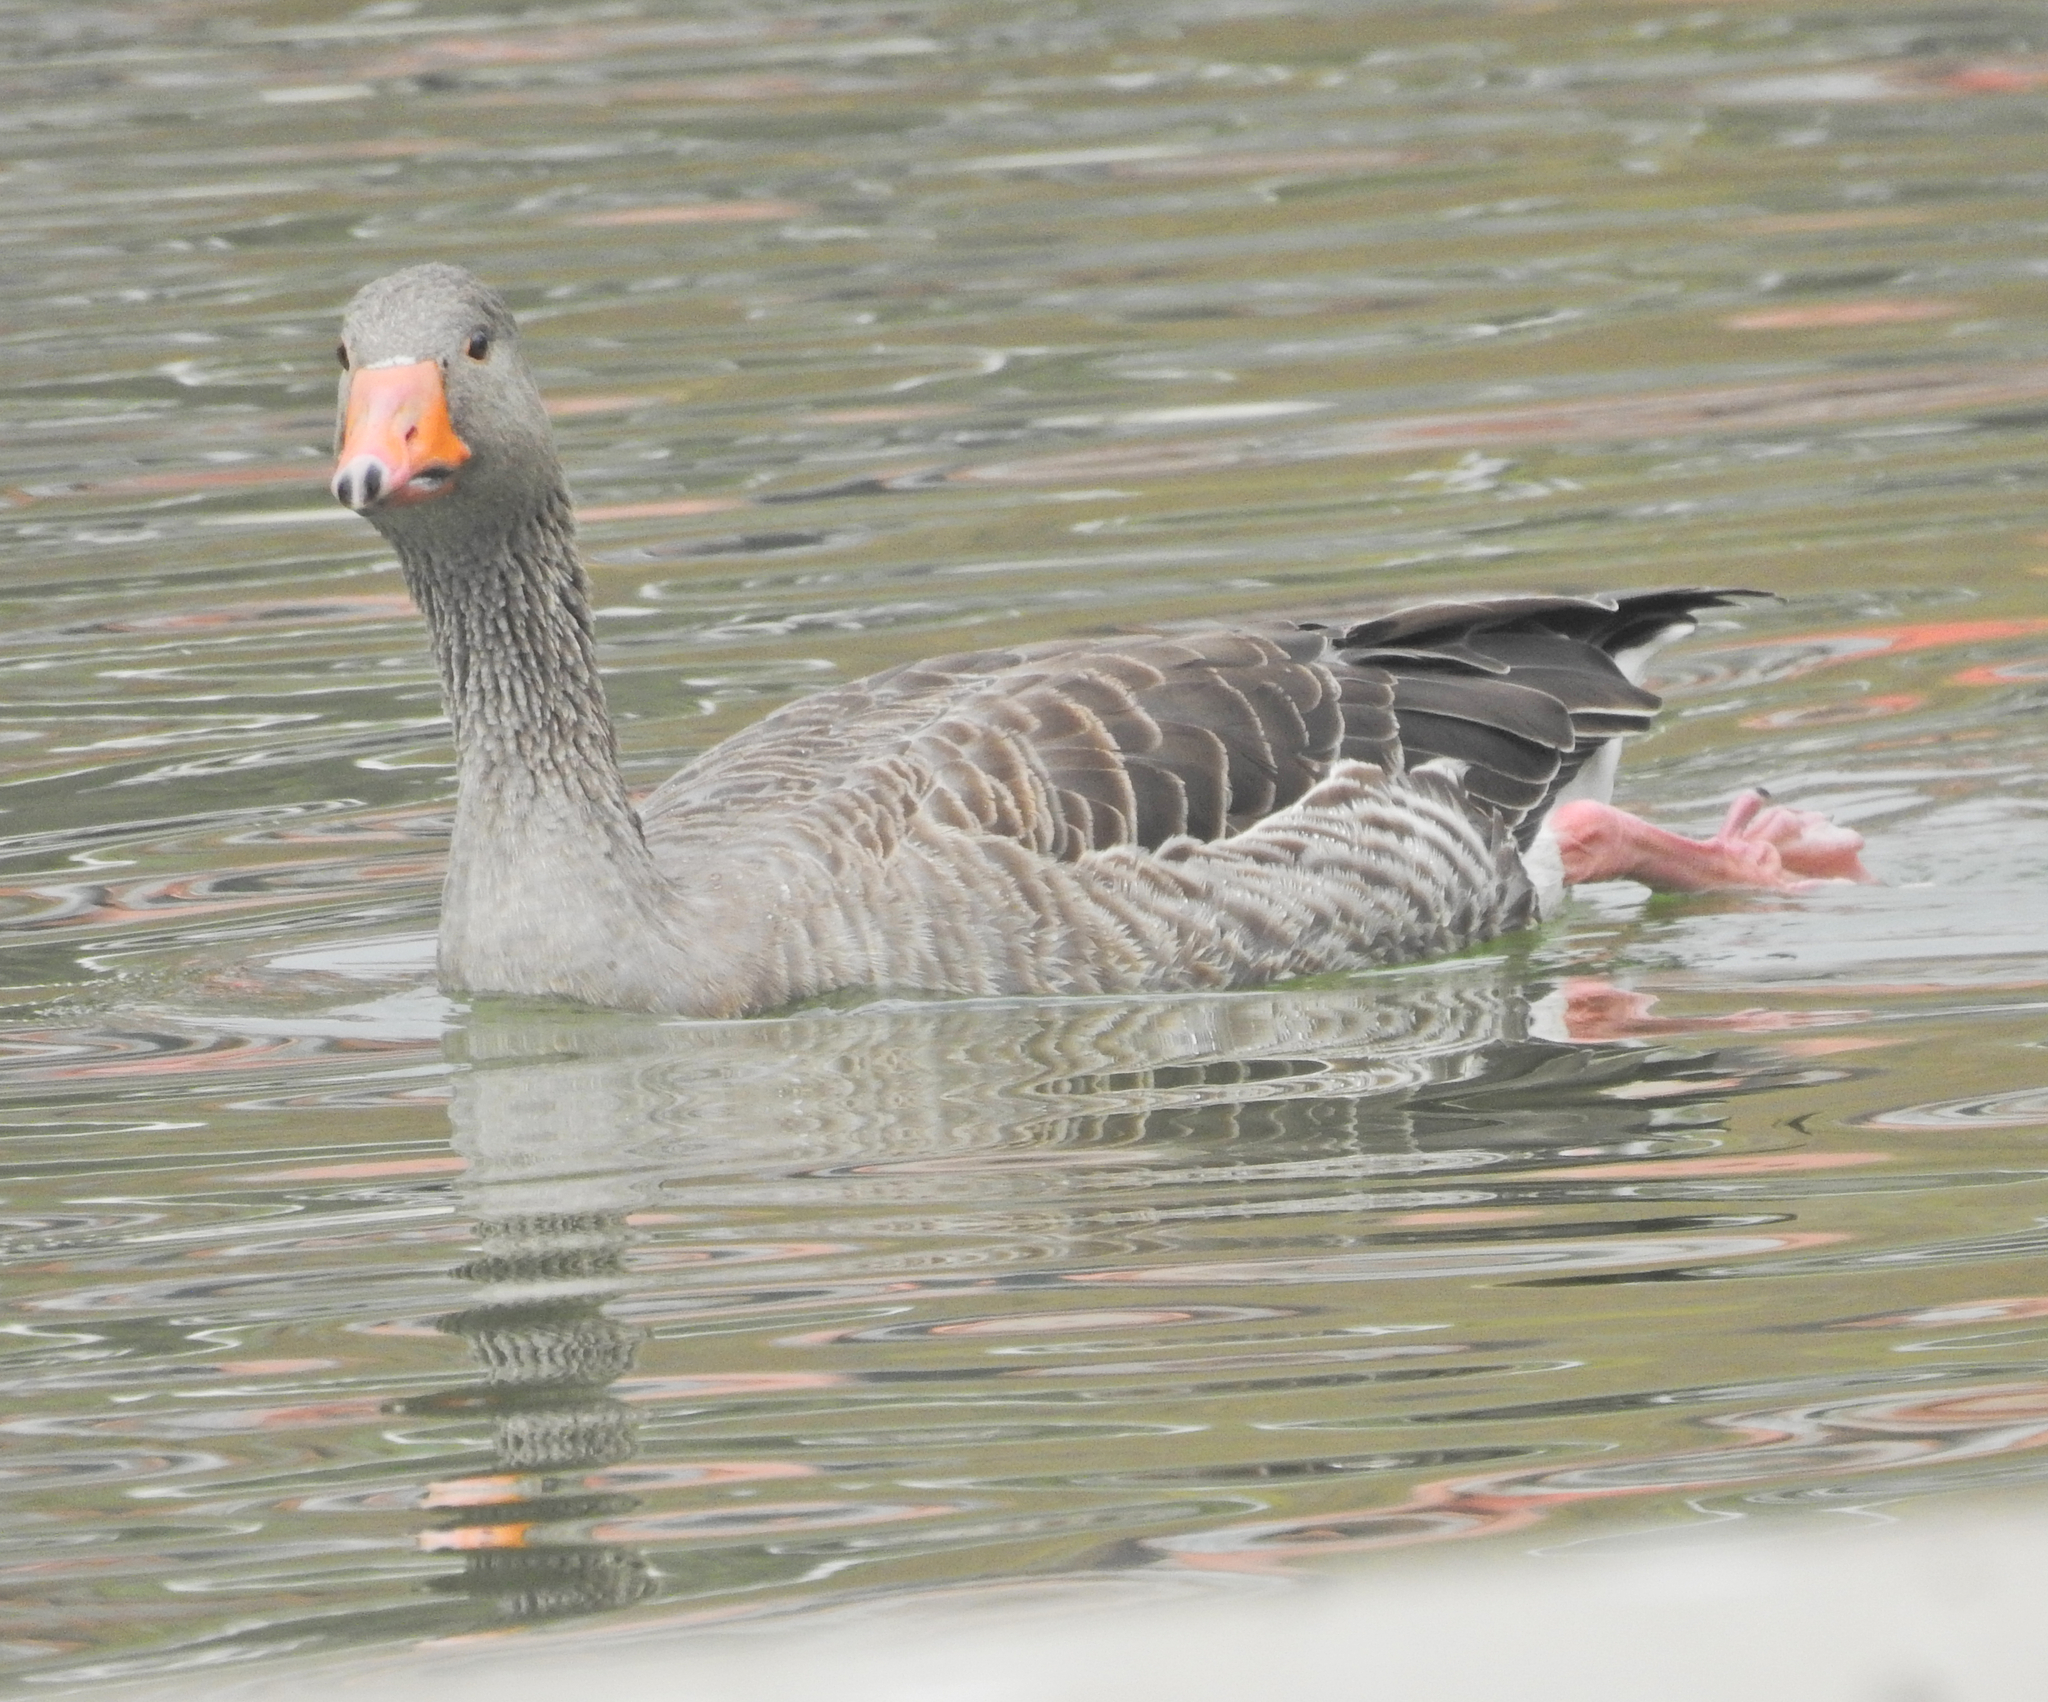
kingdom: Animalia
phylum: Chordata
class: Aves
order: Anseriformes
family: Anatidae
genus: Anser
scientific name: Anser anser
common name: Greylag goose
